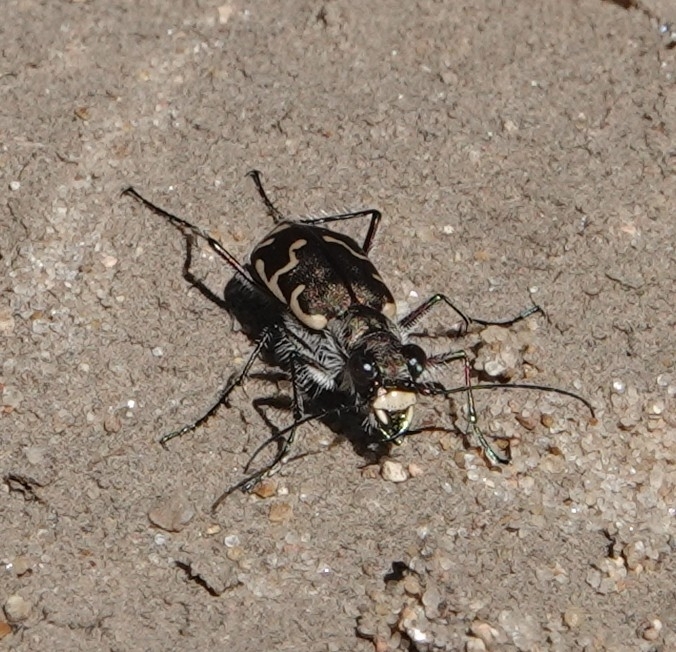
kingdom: Animalia
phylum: Arthropoda
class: Insecta
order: Coleoptera
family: Carabidae
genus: Cicindela
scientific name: Cicindela repanda
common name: Bronzed tiger beetle
